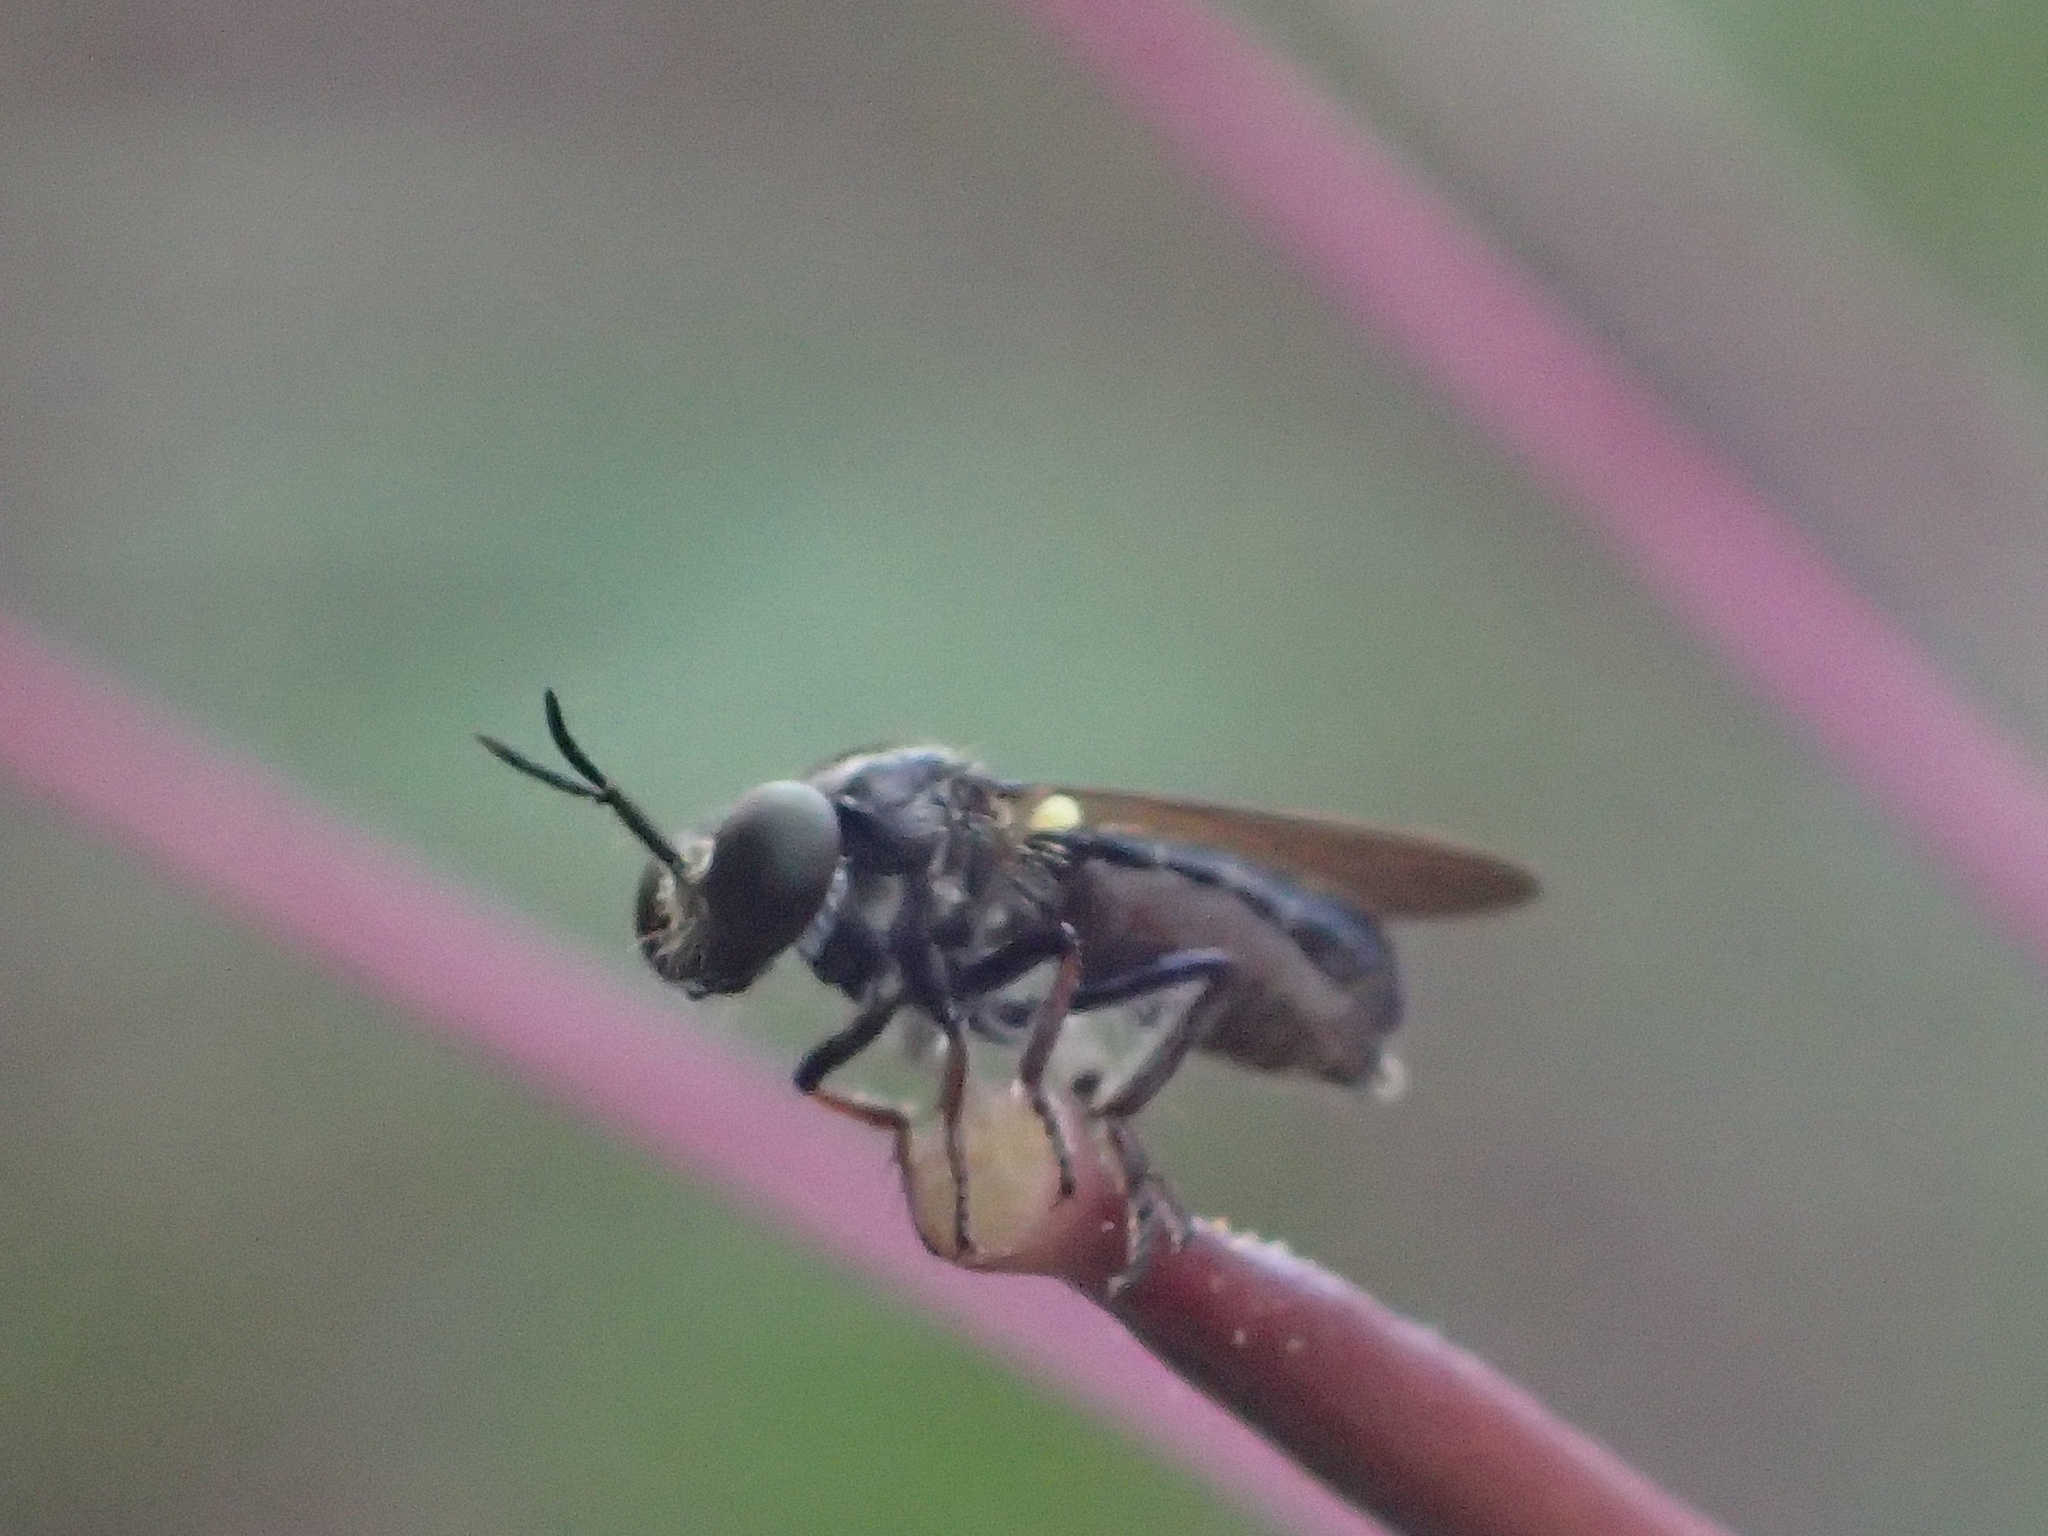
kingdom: Animalia
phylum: Arthropoda
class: Insecta
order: Diptera
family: Asilidae
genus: Cerotainia
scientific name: Cerotainia macrocera
